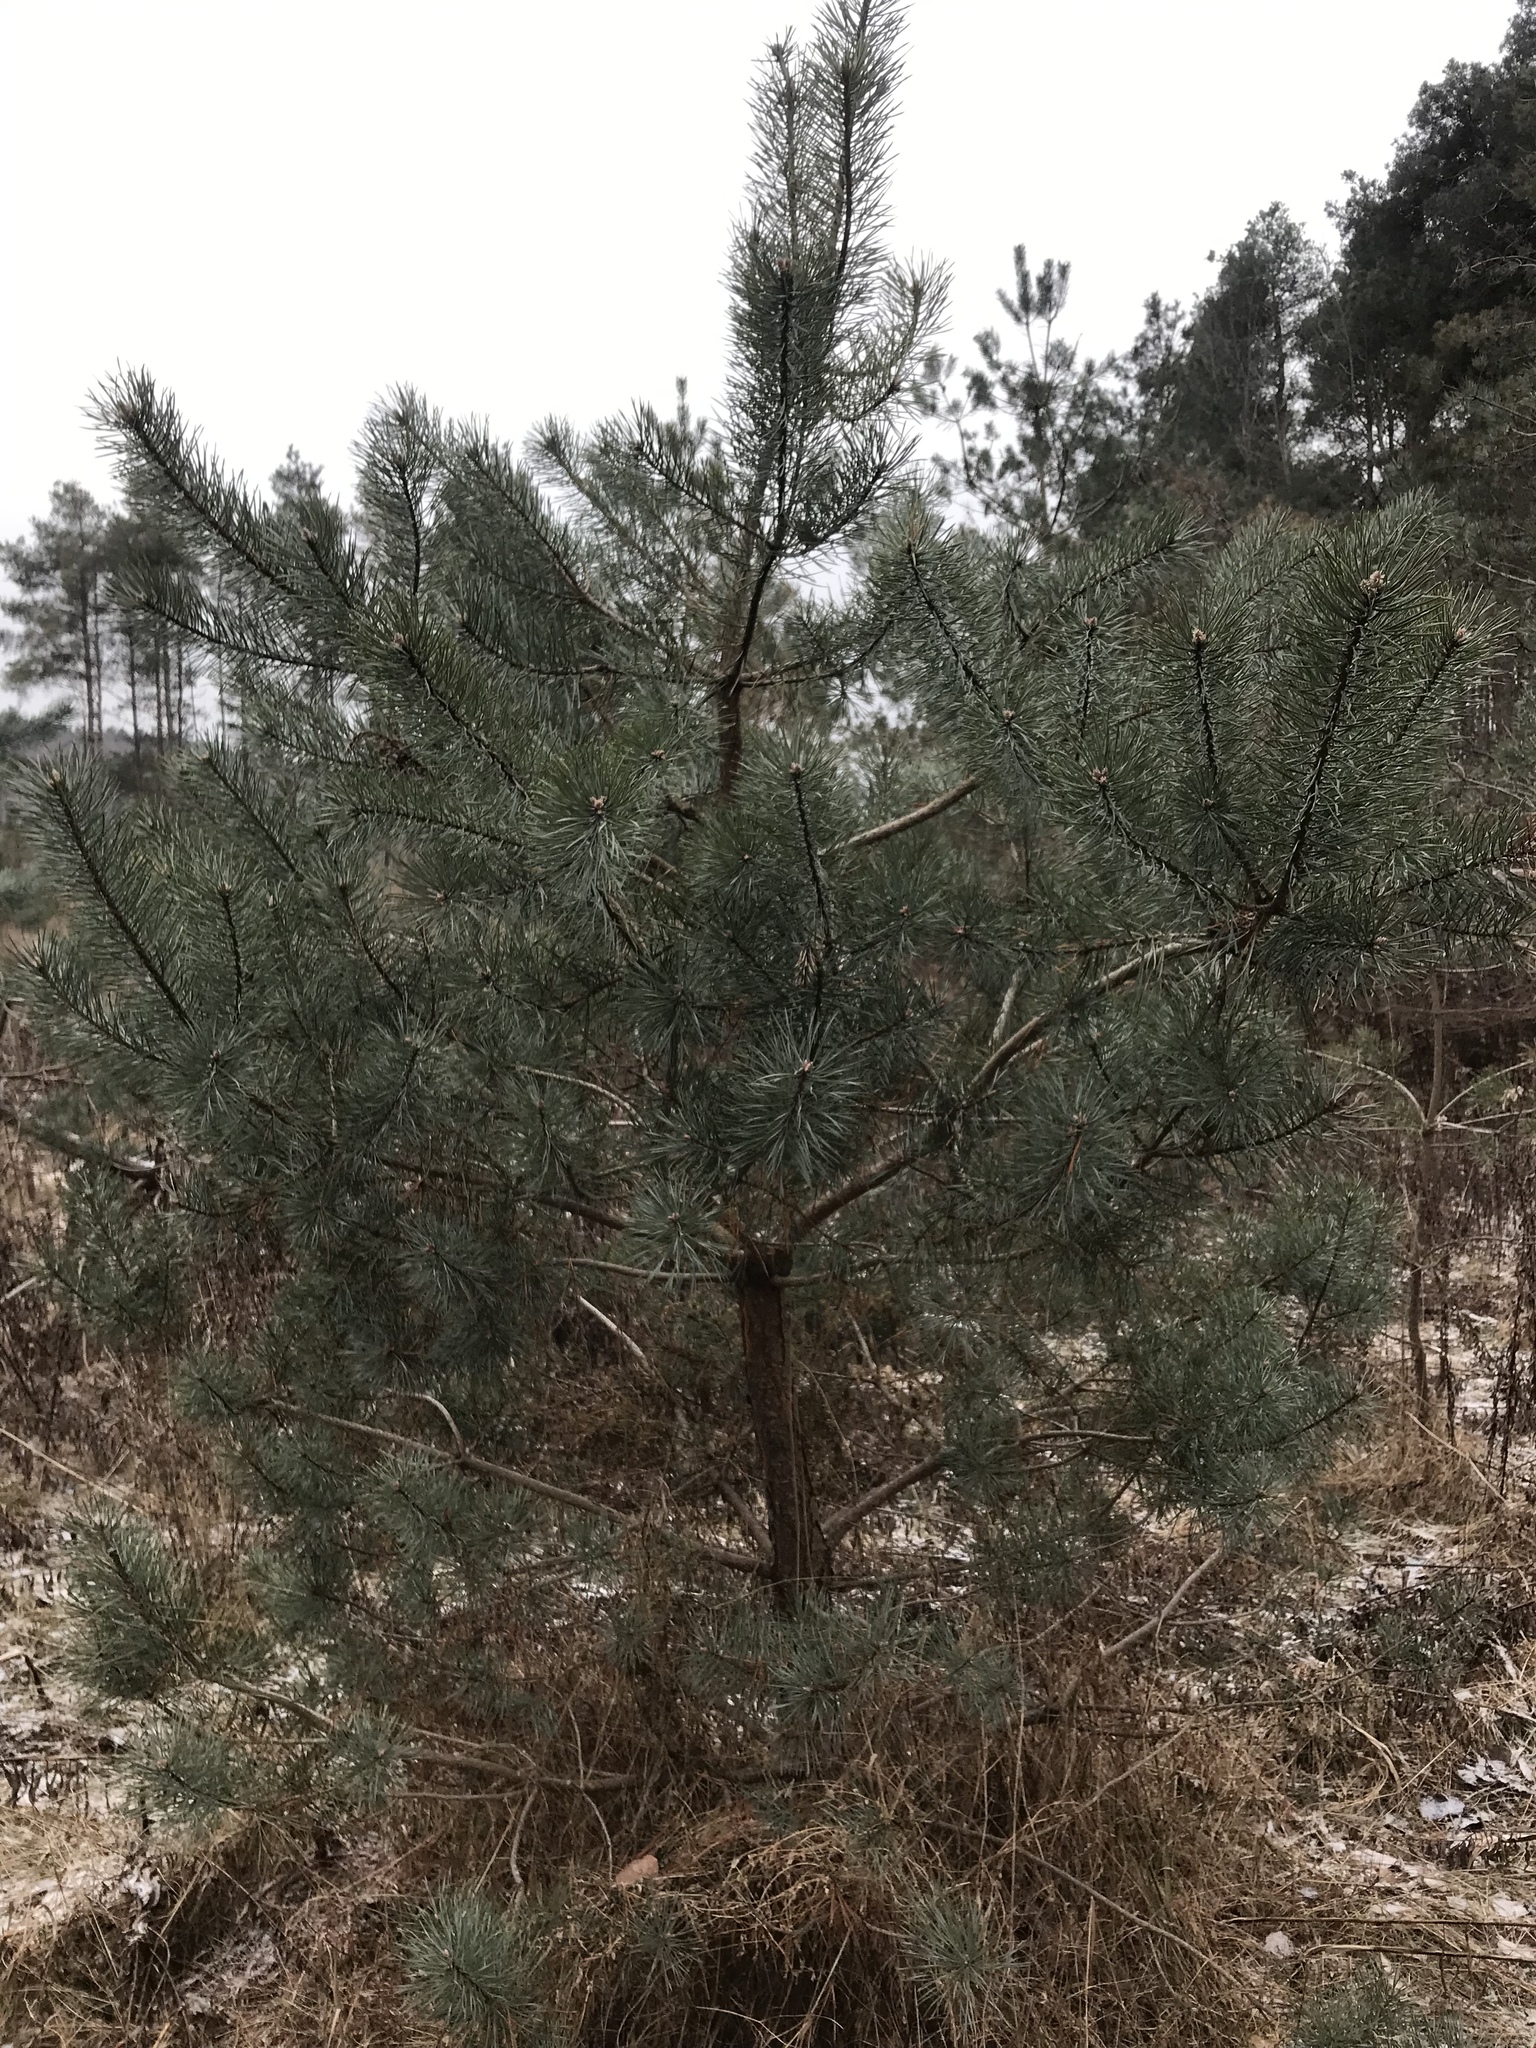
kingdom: Plantae
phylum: Tracheophyta
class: Pinopsida
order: Pinales
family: Pinaceae
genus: Pinus
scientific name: Pinus sylvestris
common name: Scots pine
